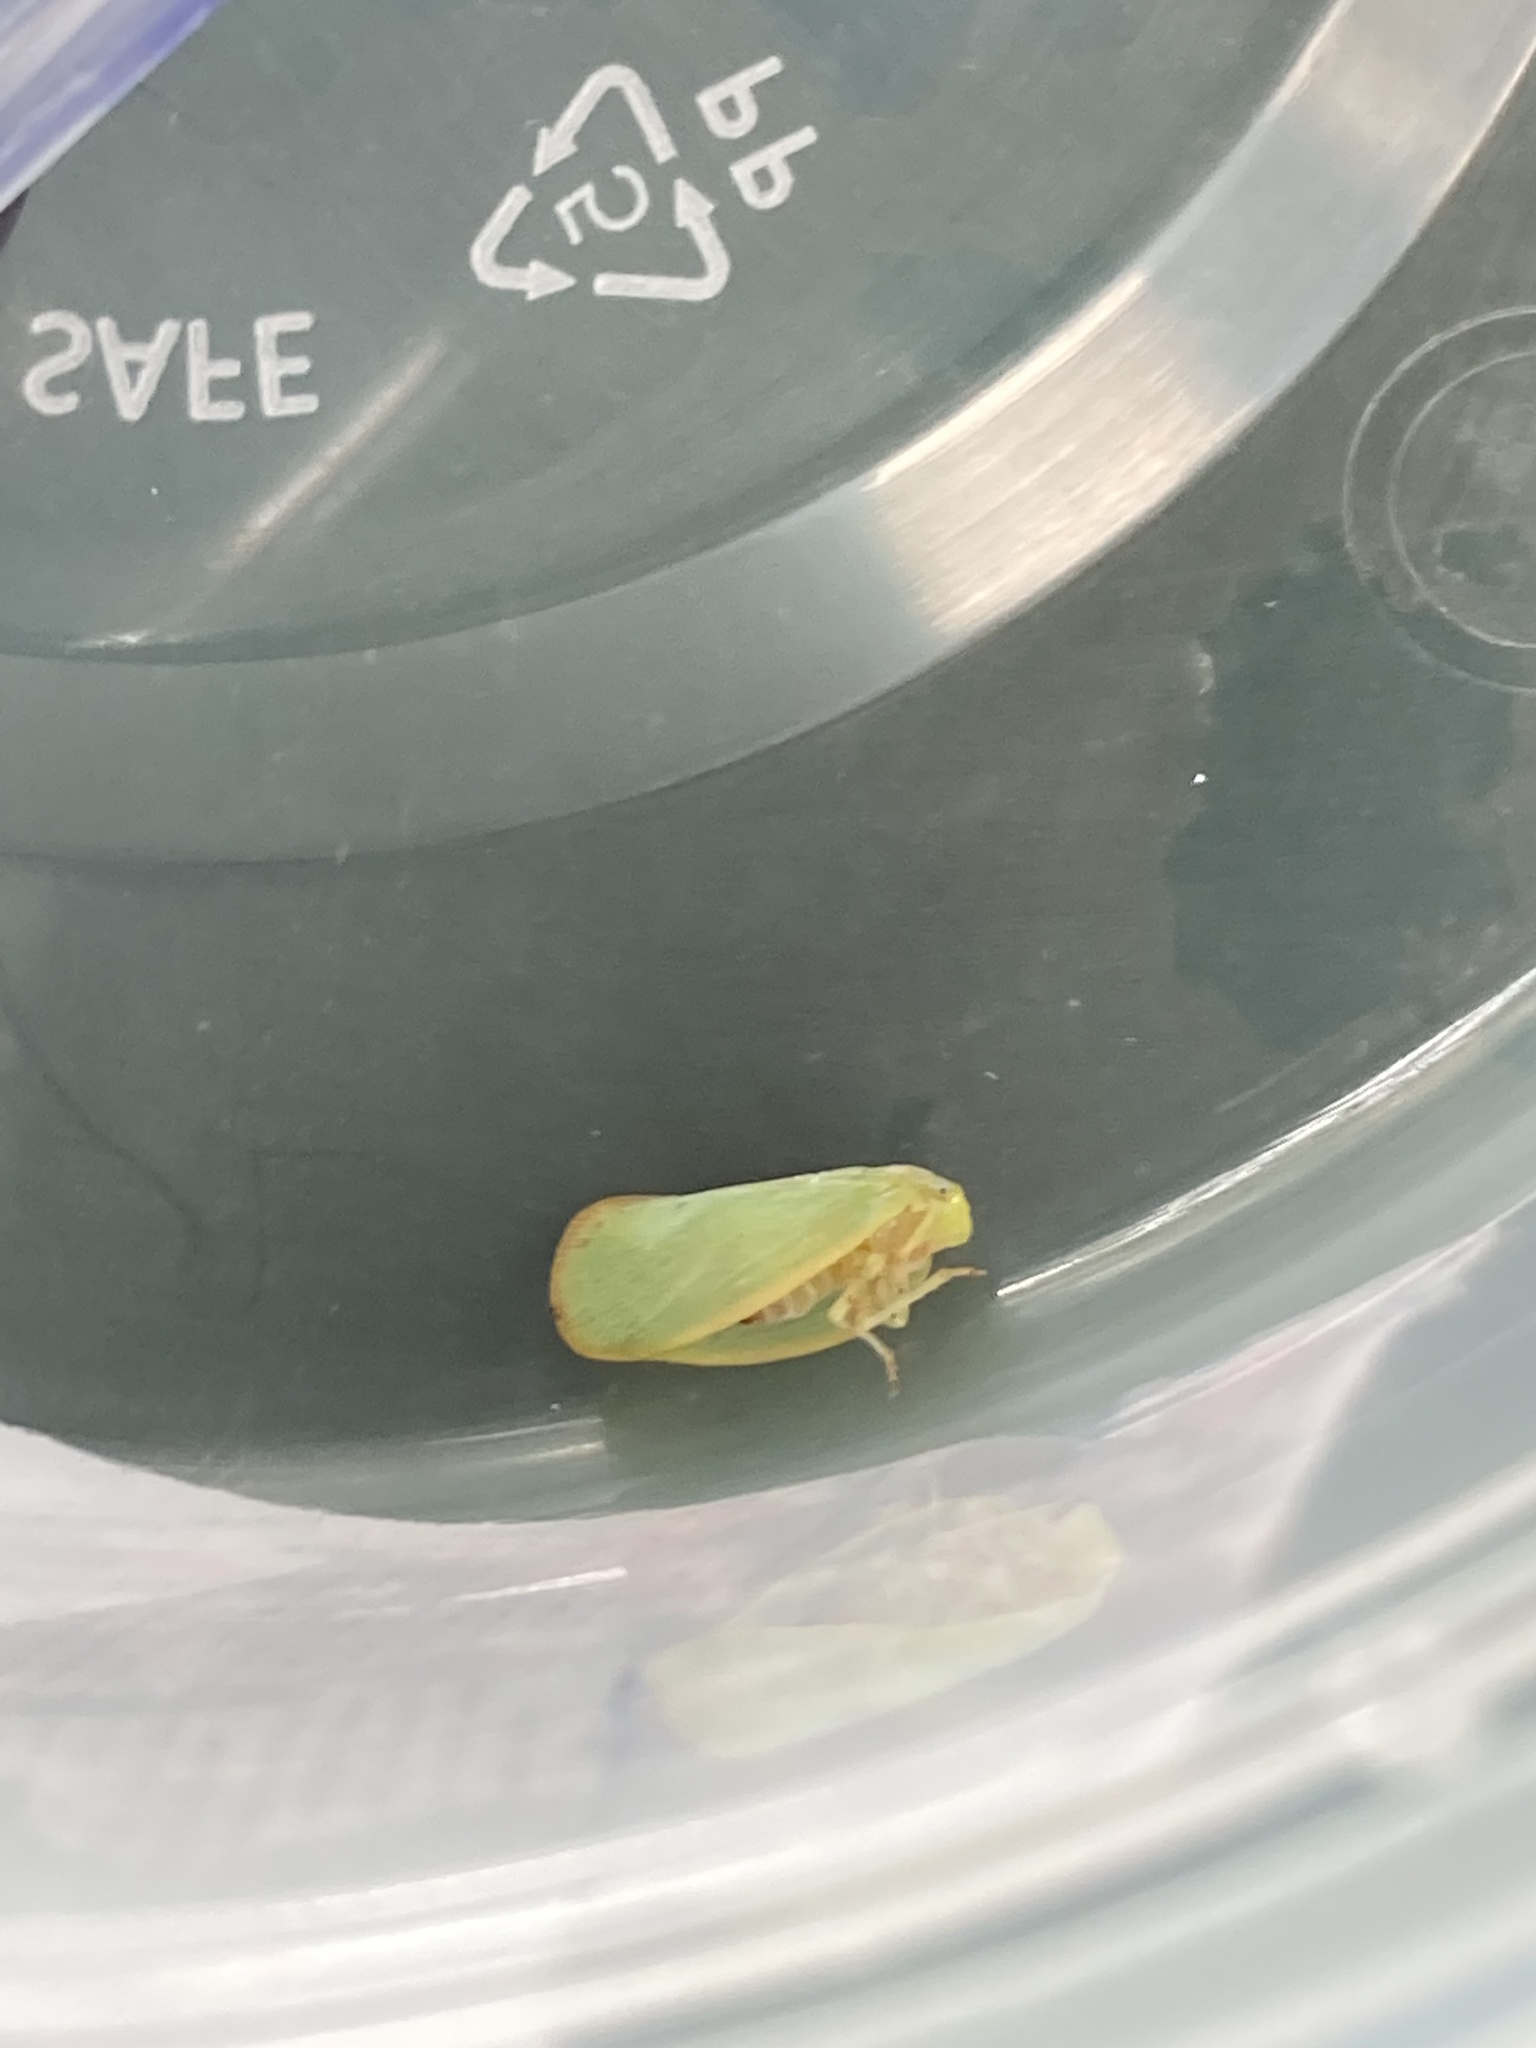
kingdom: Animalia
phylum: Arthropoda
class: Insecta
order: Hemiptera
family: Flatidae
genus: Ormenoides
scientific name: Ormenoides venusta
